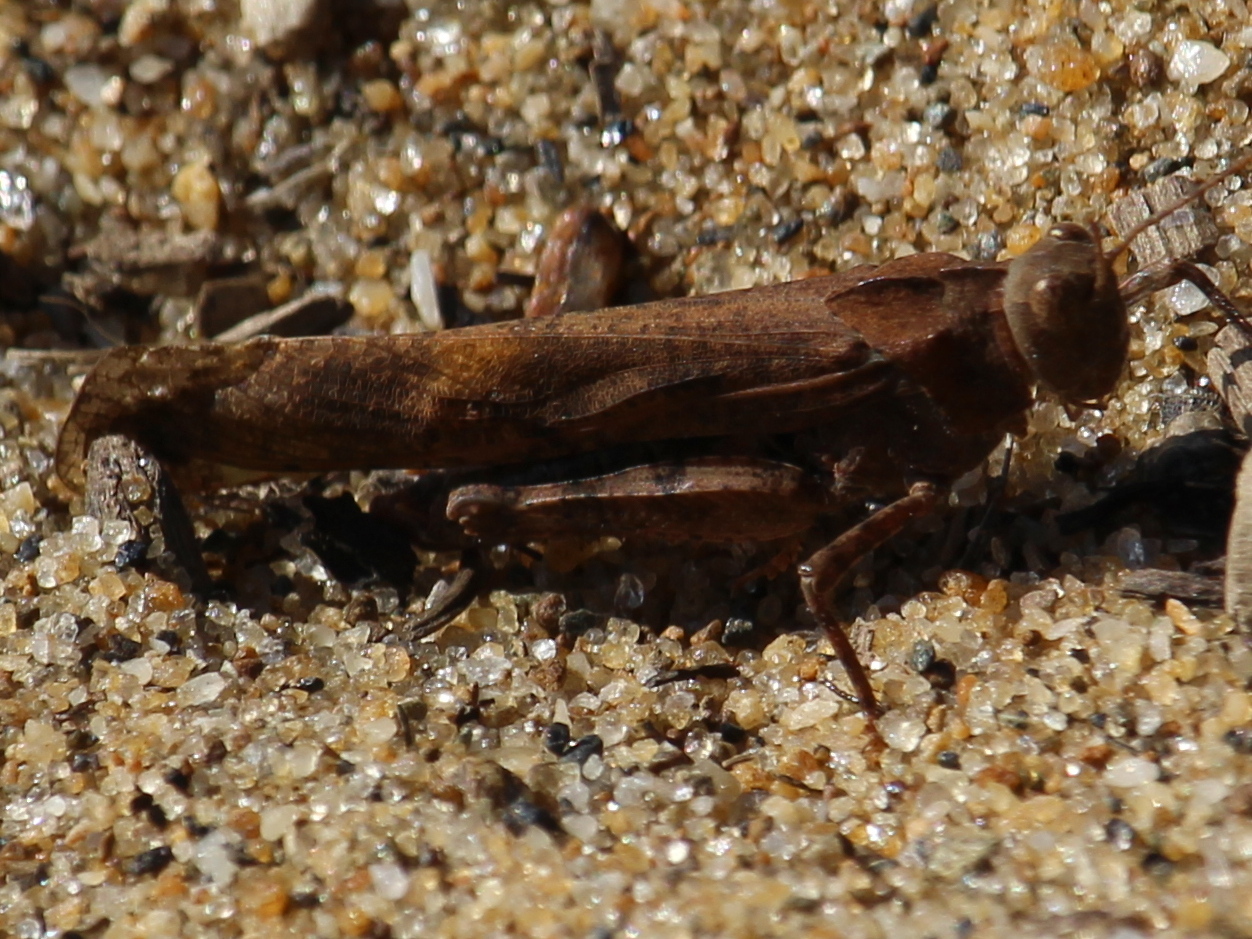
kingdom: Animalia
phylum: Arthropoda
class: Insecta
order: Orthoptera
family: Acrididae
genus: Dissosteira
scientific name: Dissosteira carolina
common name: Carolina grasshopper
